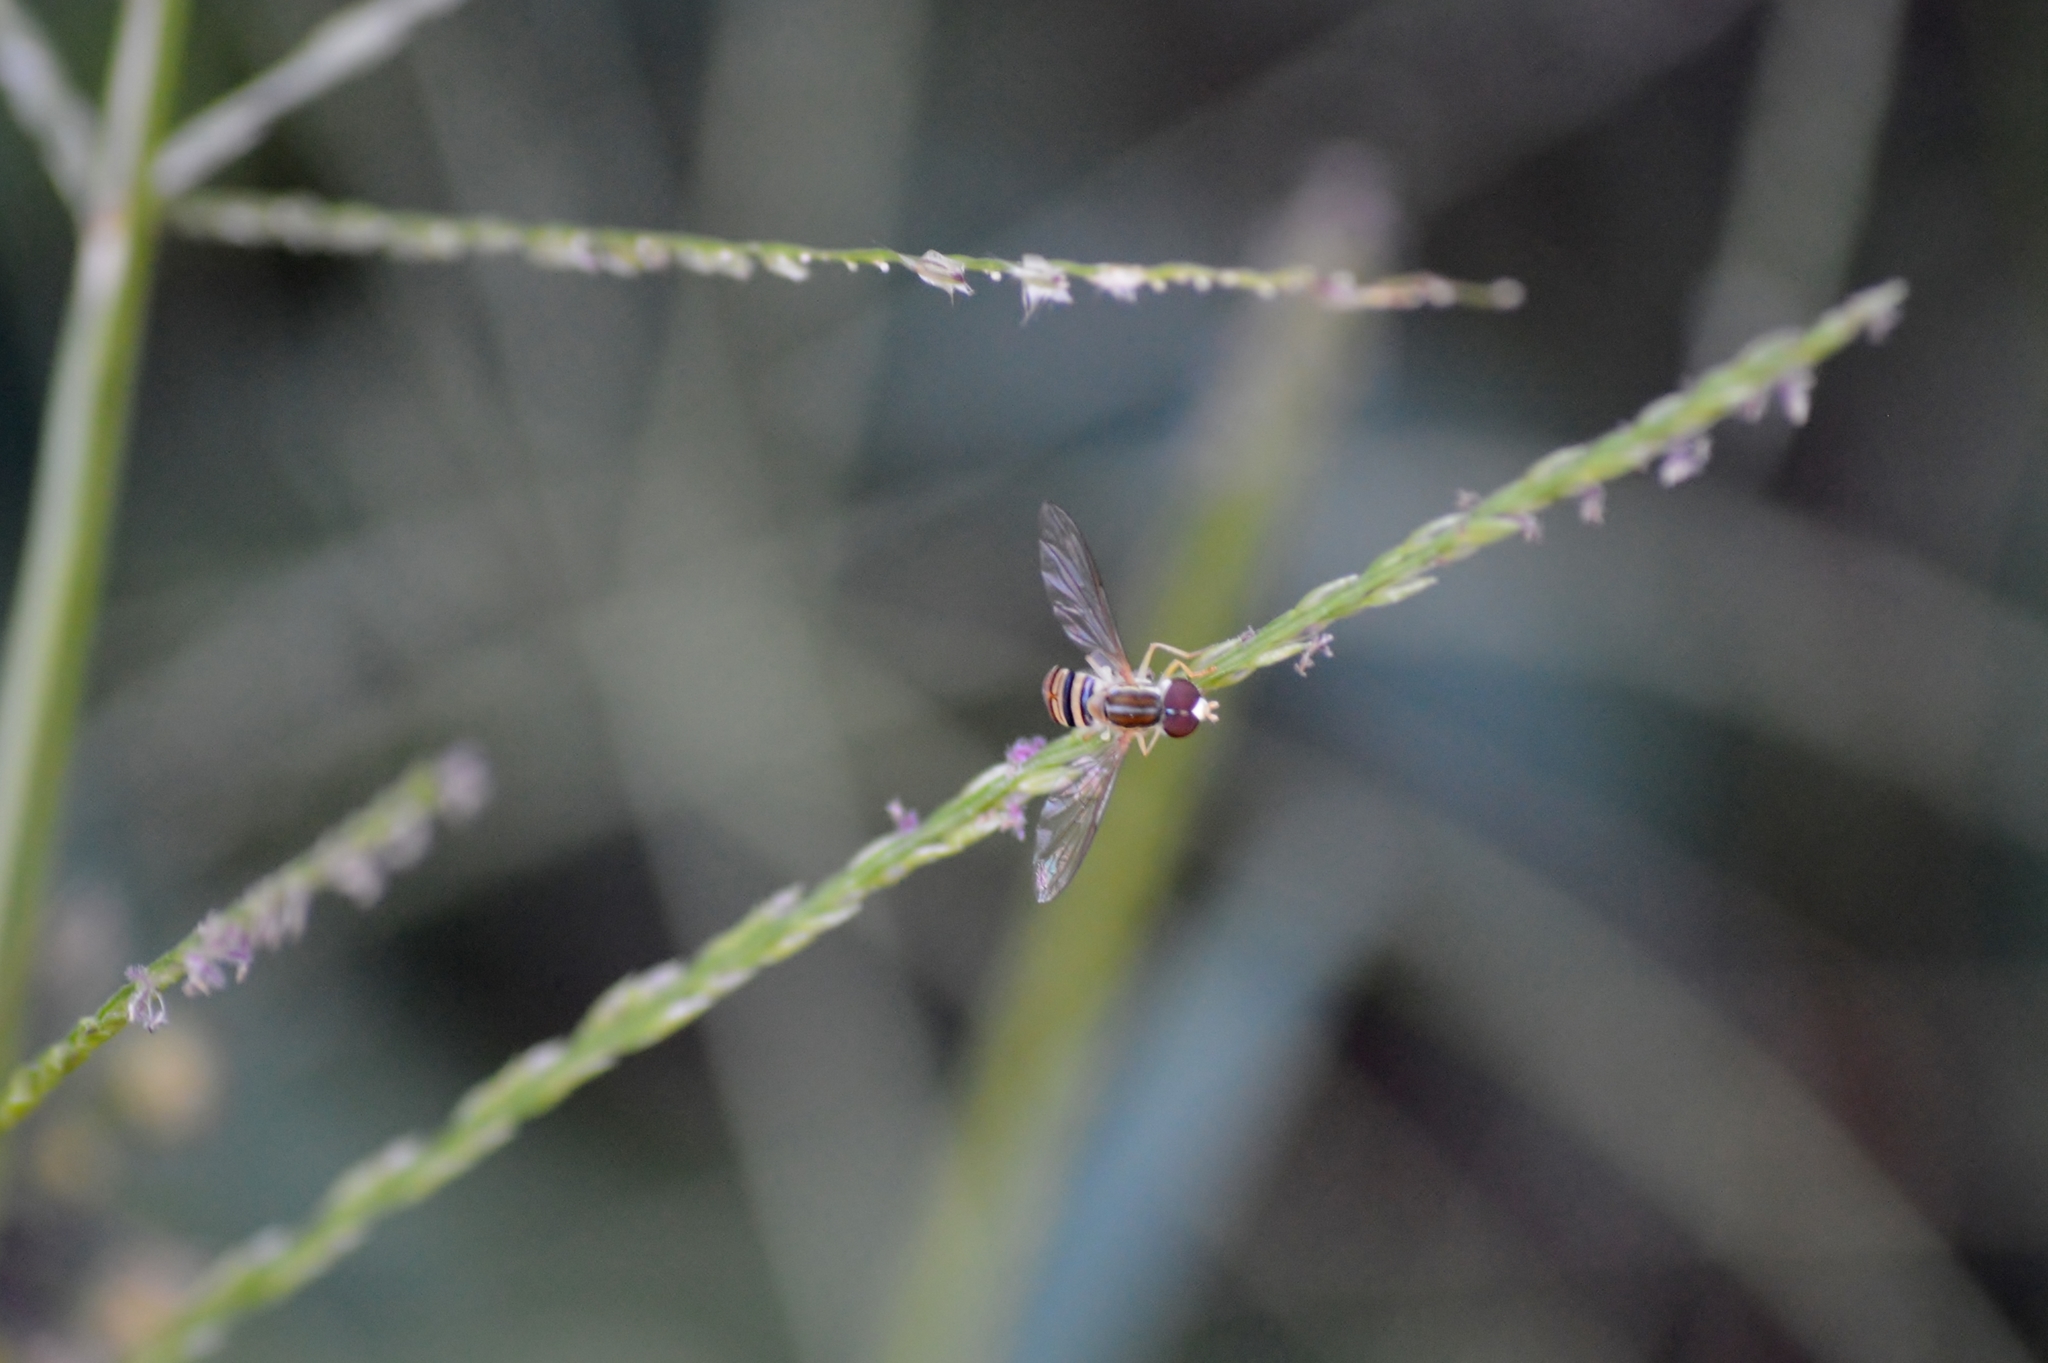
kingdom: Animalia
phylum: Arthropoda
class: Insecta
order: Diptera
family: Syrphidae
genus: Toxomerus
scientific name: Toxomerus politus
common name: Maize calligrapher
